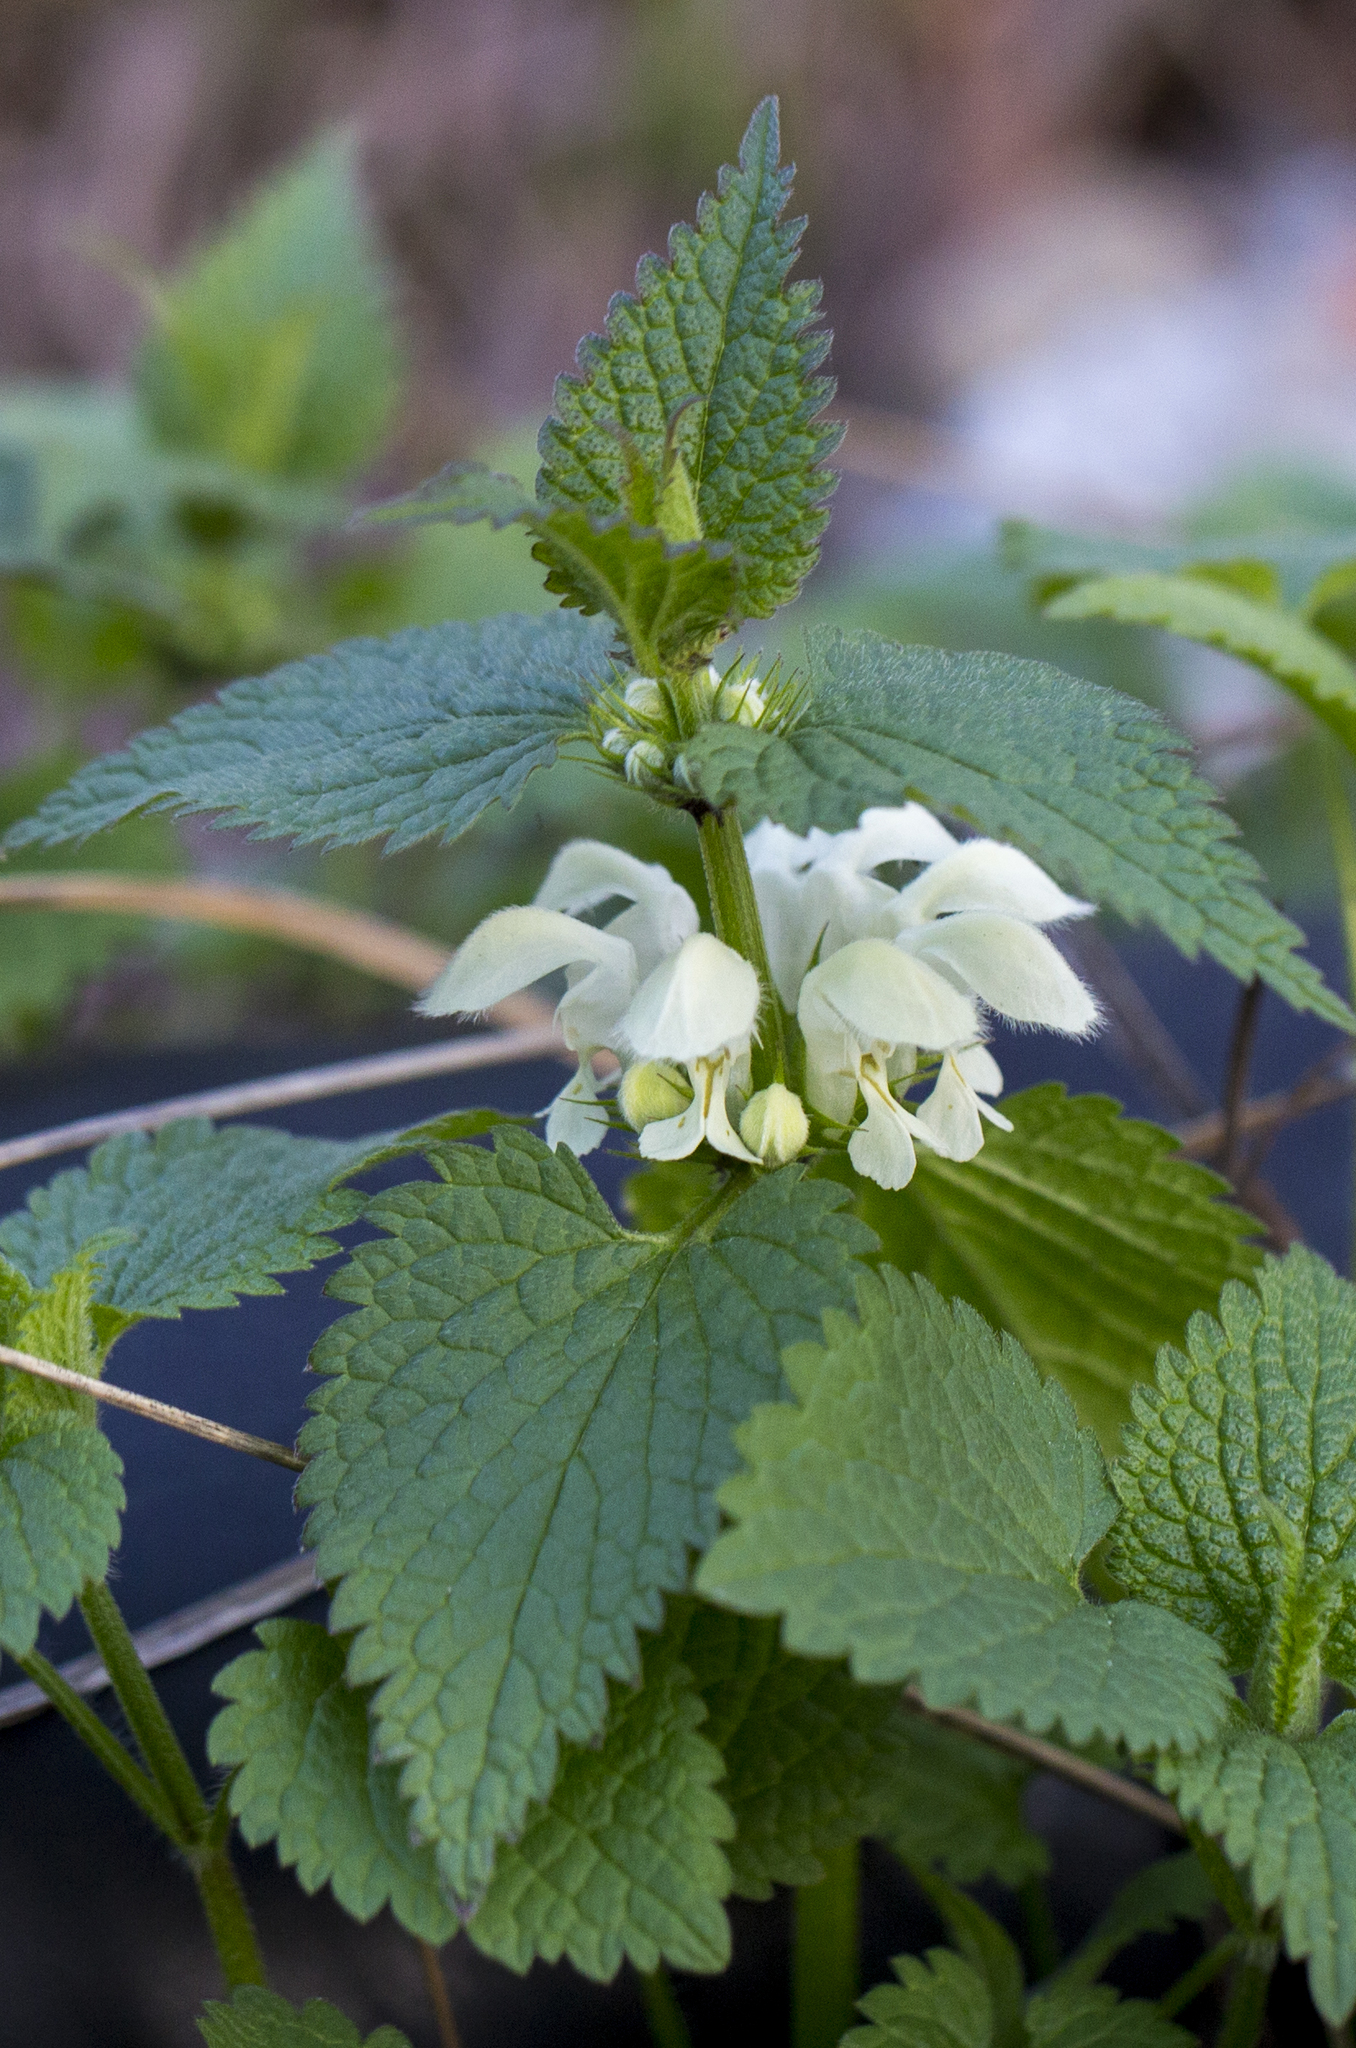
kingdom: Plantae
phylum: Tracheophyta
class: Magnoliopsida
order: Lamiales
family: Lamiaceae
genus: Lamium
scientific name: Lamium album
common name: White dead-nettle
